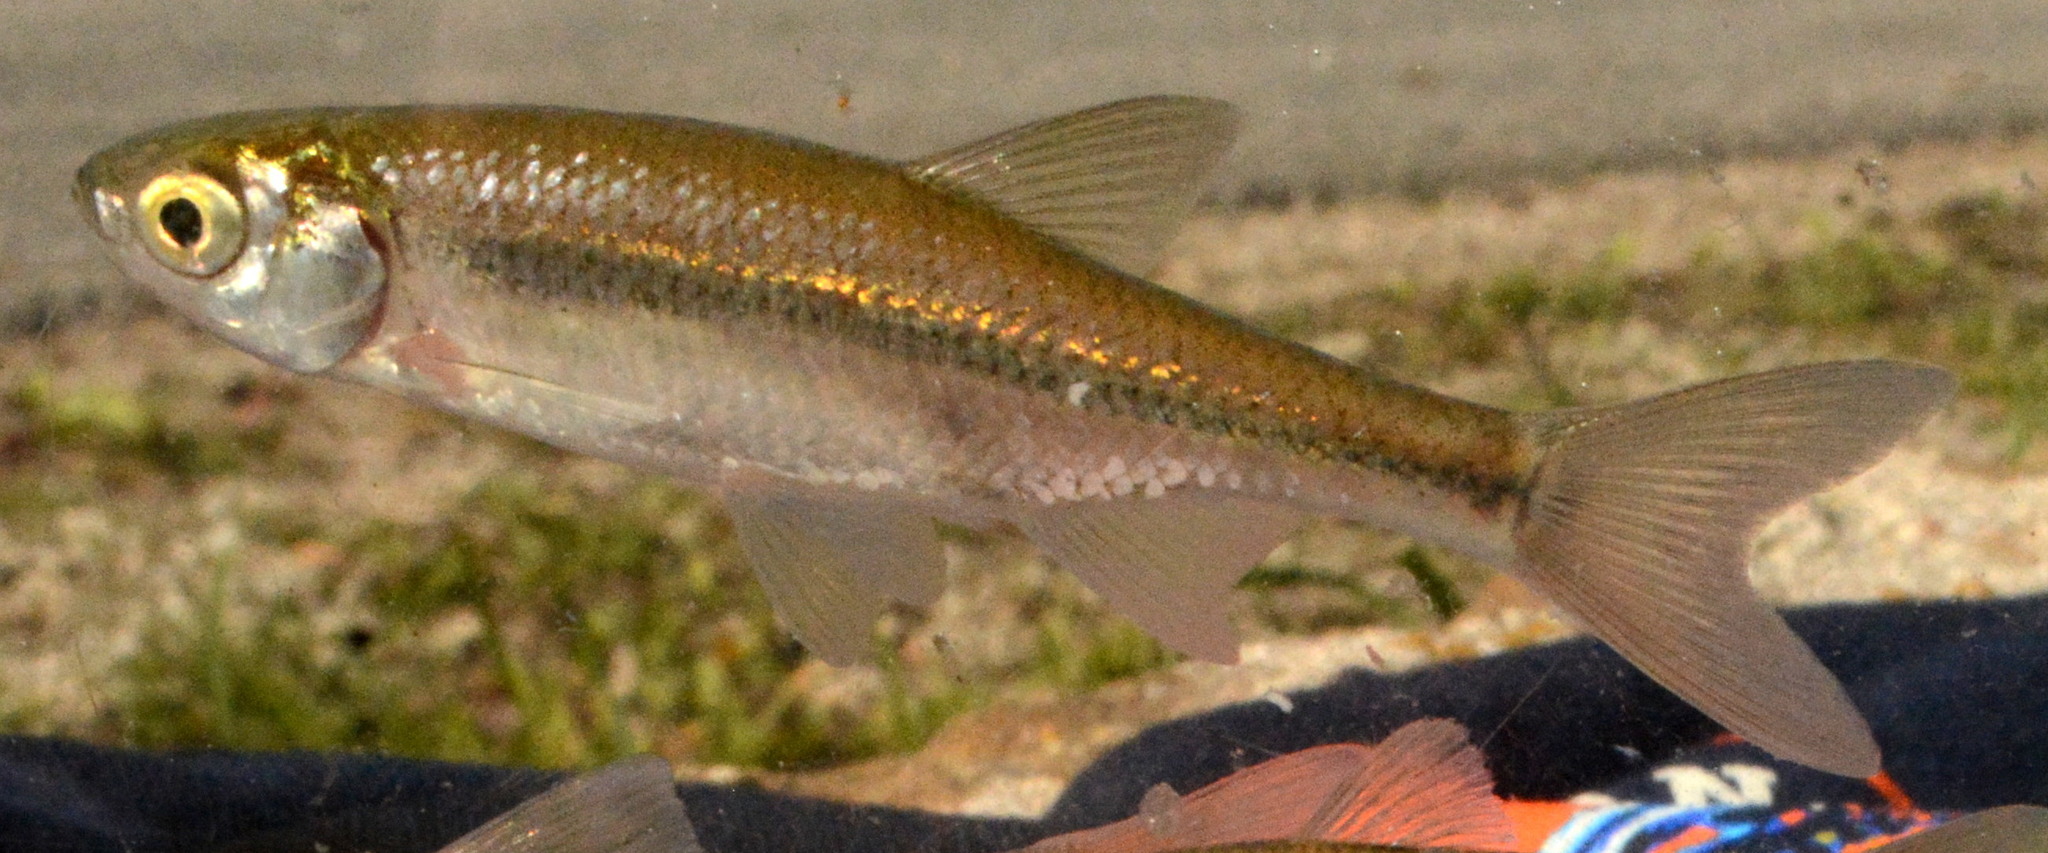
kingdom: Animalia
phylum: Chordata
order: Cypriniformes
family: Cyprinidae
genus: Notemigonus
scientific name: Notemigonus crysoleucas
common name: Golden shiner
